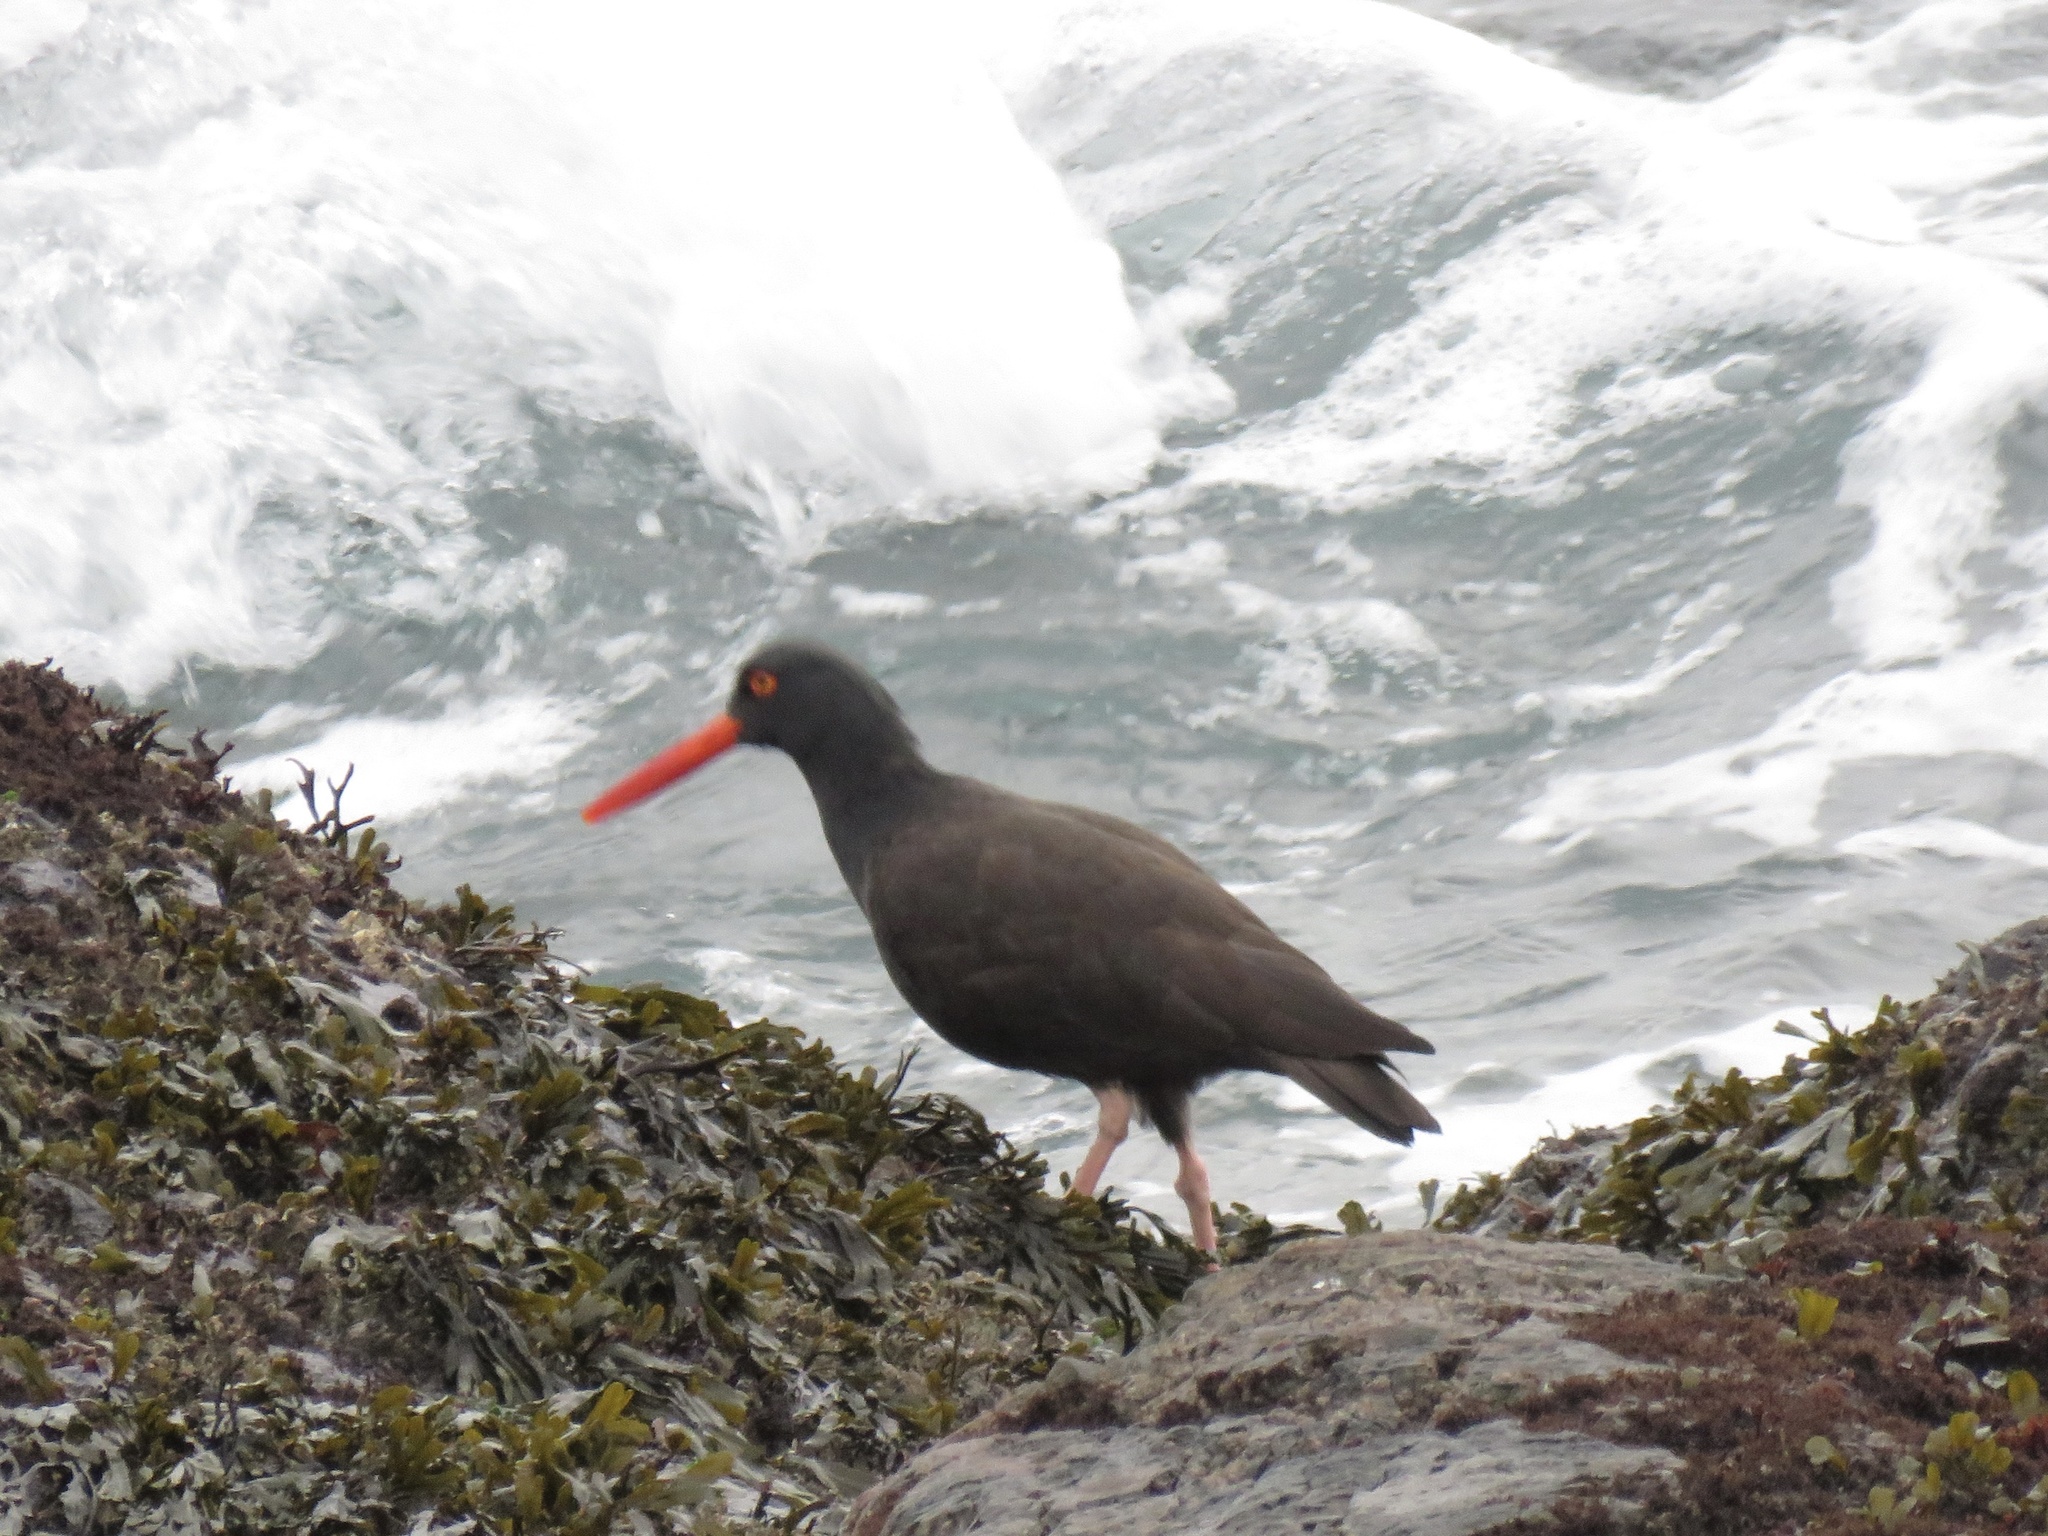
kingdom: Animalia
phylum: Chordata
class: Aves
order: Charadriiformes
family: Haematopodidae
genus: Haematopus
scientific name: Haematopus bachmani
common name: Black oystercatcher
